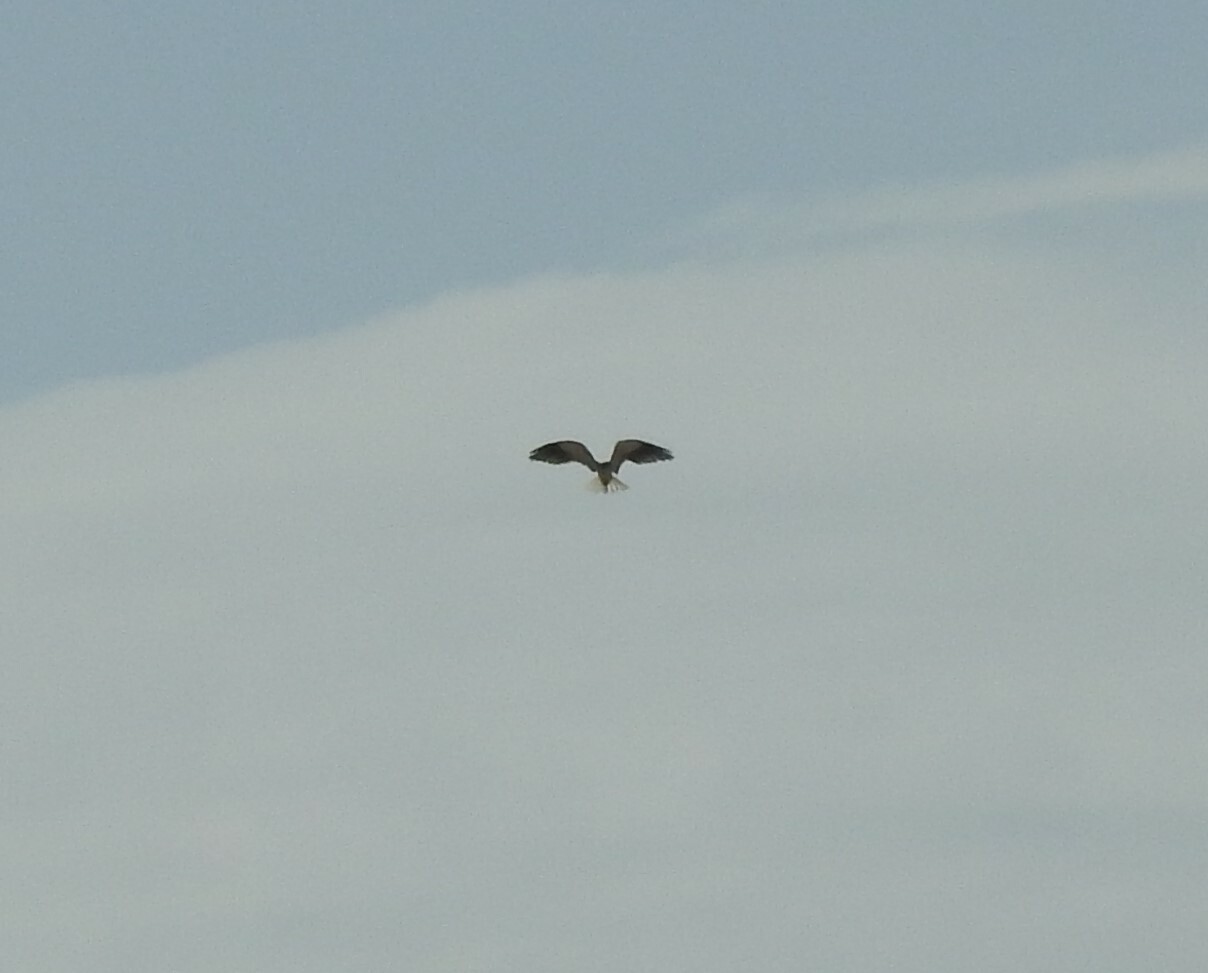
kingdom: Animalia
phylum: Chordata
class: Aves
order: Accipitriformes
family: Accipitridae
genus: Elanus
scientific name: Elanus caeruleus
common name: Black-winged kite
